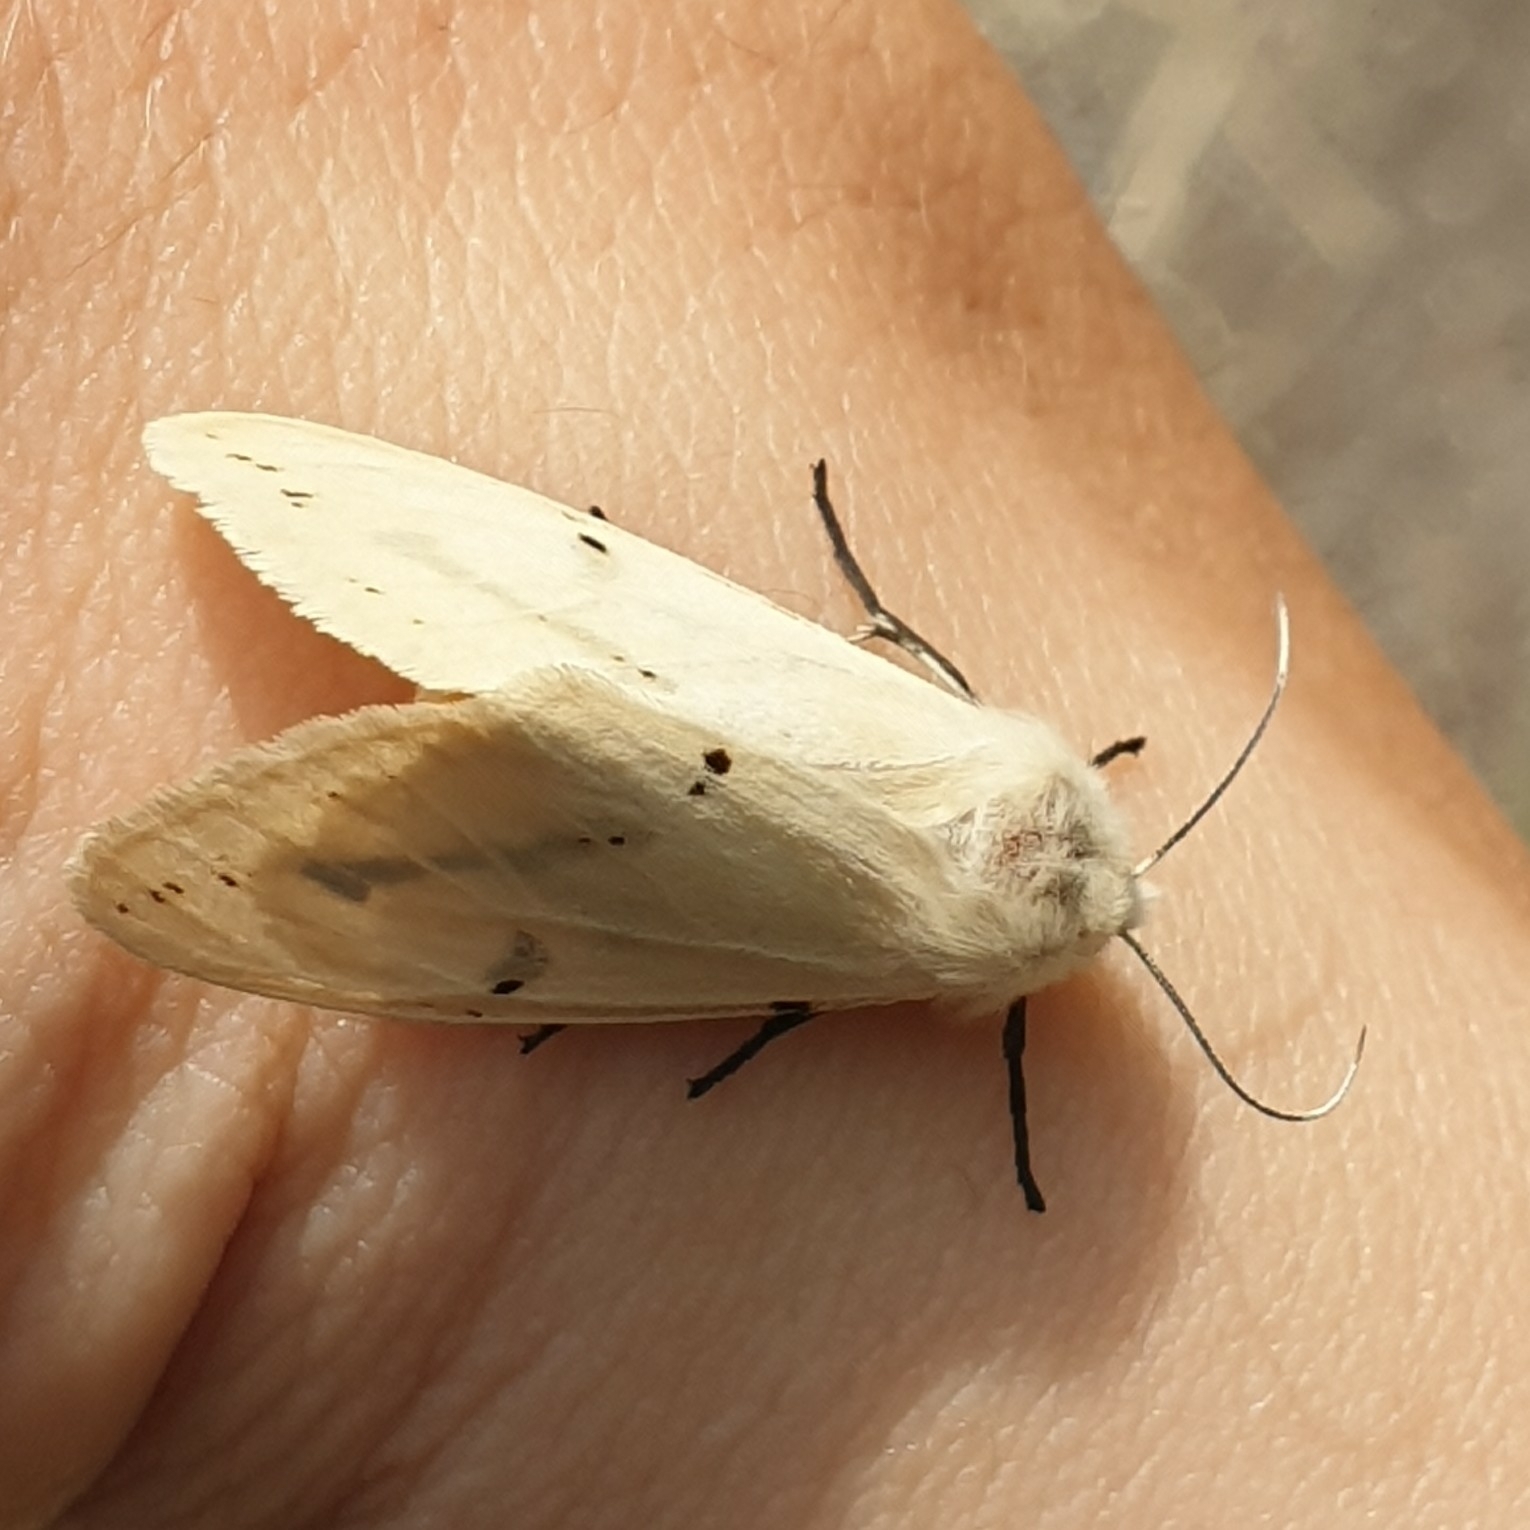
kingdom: Animalia
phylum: Arthropoda
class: Insecta
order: Lepidoptera
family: Erebidae
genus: Spilarctia
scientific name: Spilarctia lutea
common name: Buff ermine
